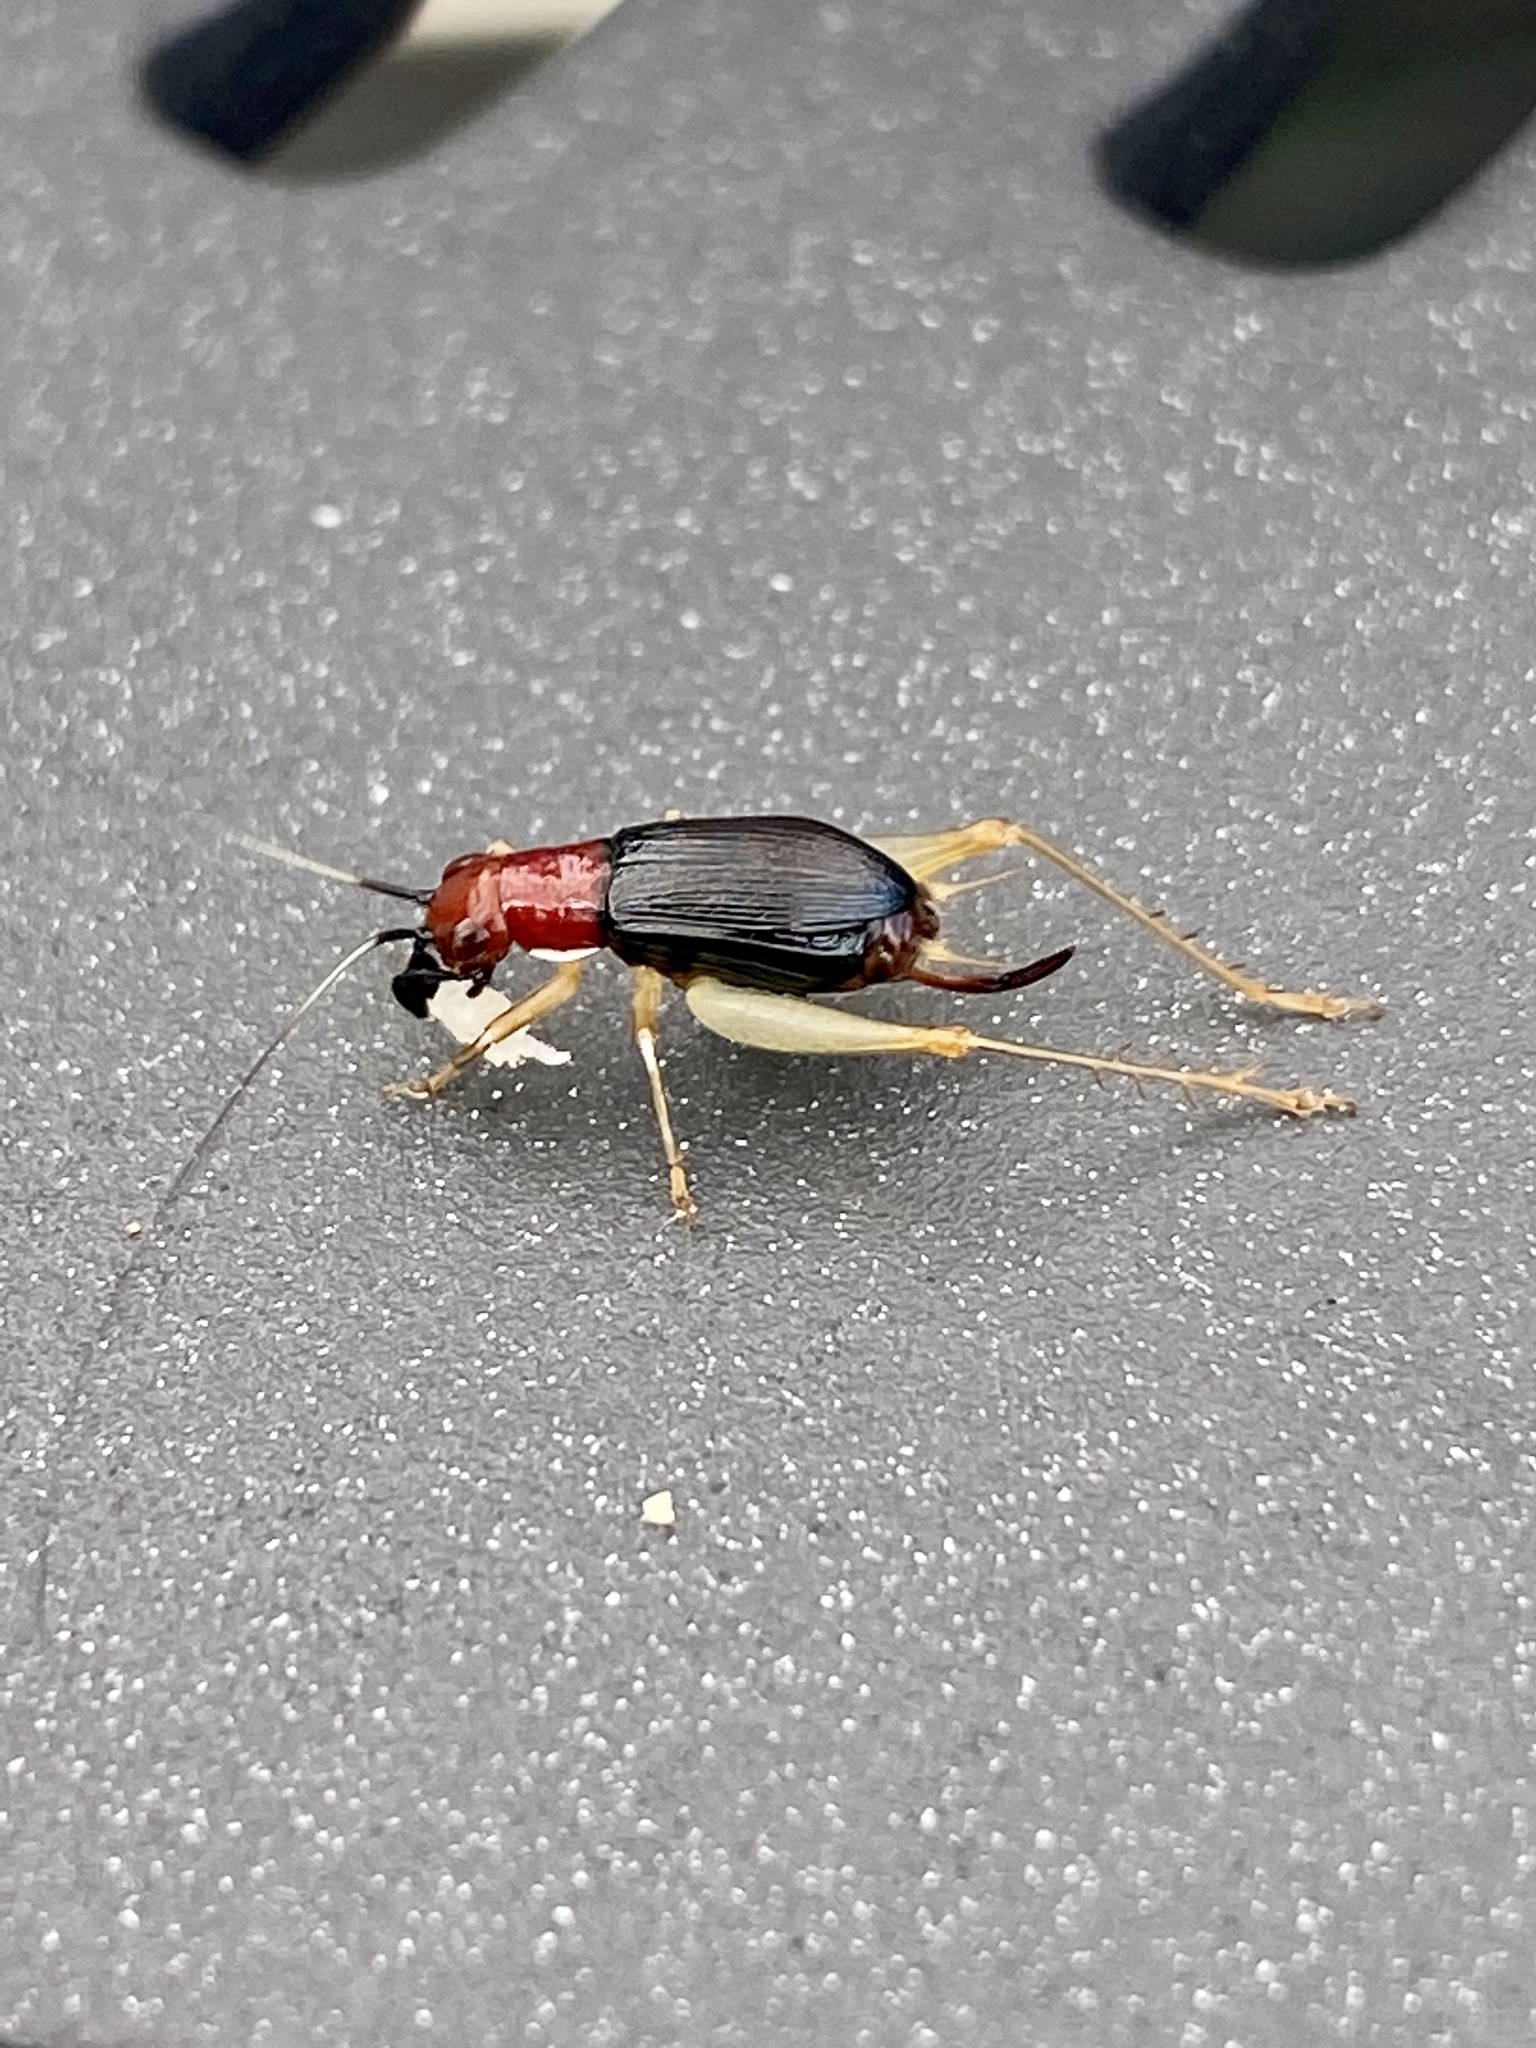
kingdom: Animalia
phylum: Arthropoda
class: Insecta
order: Orthoptera
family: Trigonidiidae
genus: Phyllopalpus
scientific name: Phyllopalpus pulchellus
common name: Handsome trig
